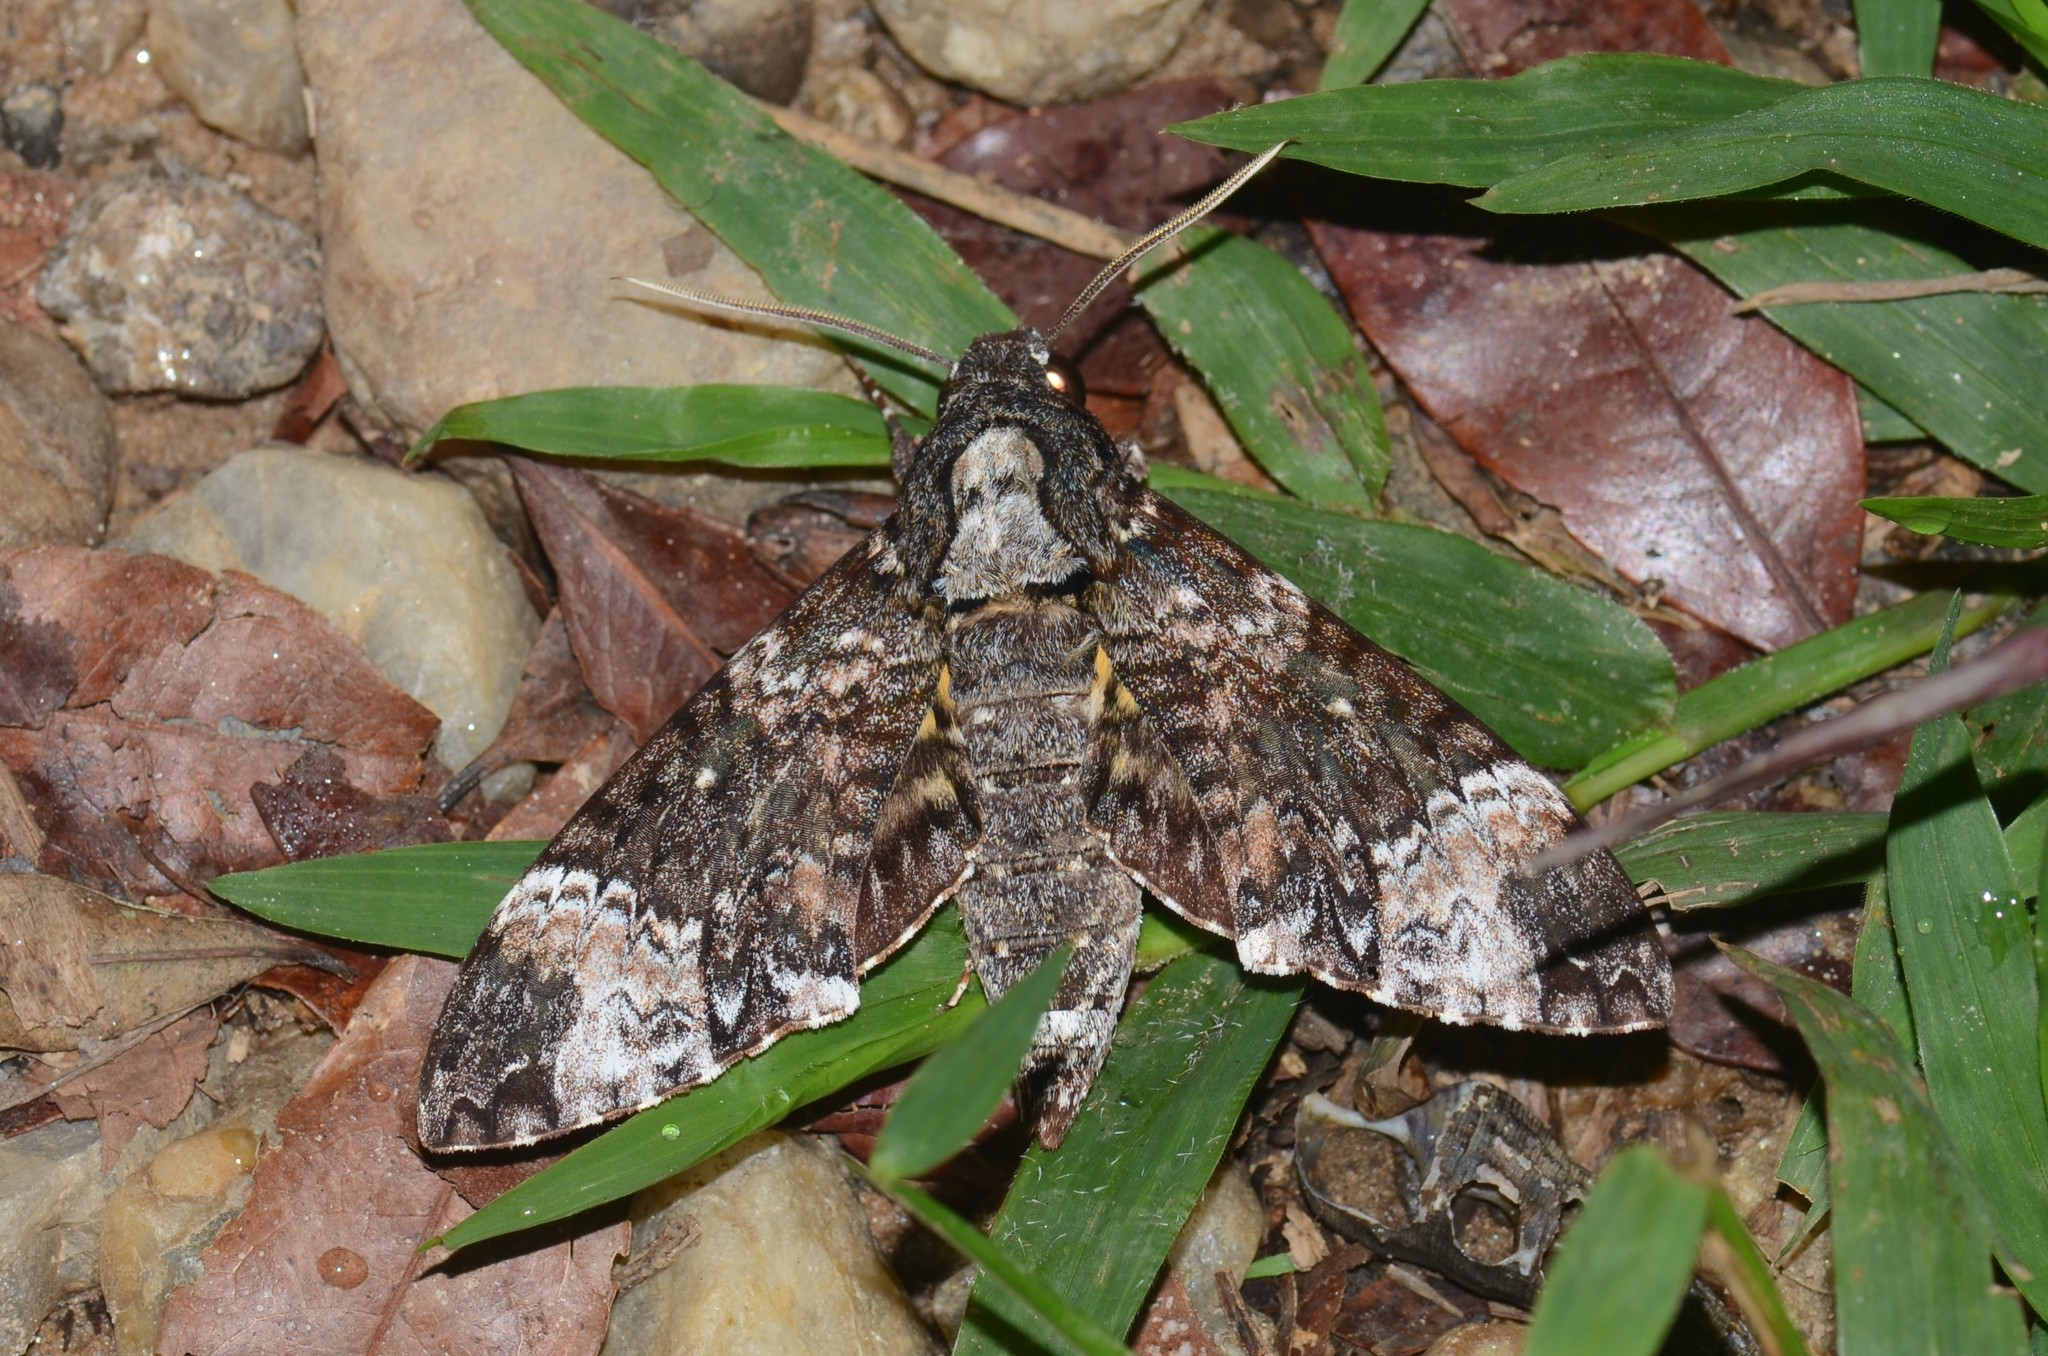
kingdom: Animalia
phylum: Arthropoda
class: Insecta
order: Lepidoptera
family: Sphingidae
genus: Coelonia
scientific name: Coelonia solani
